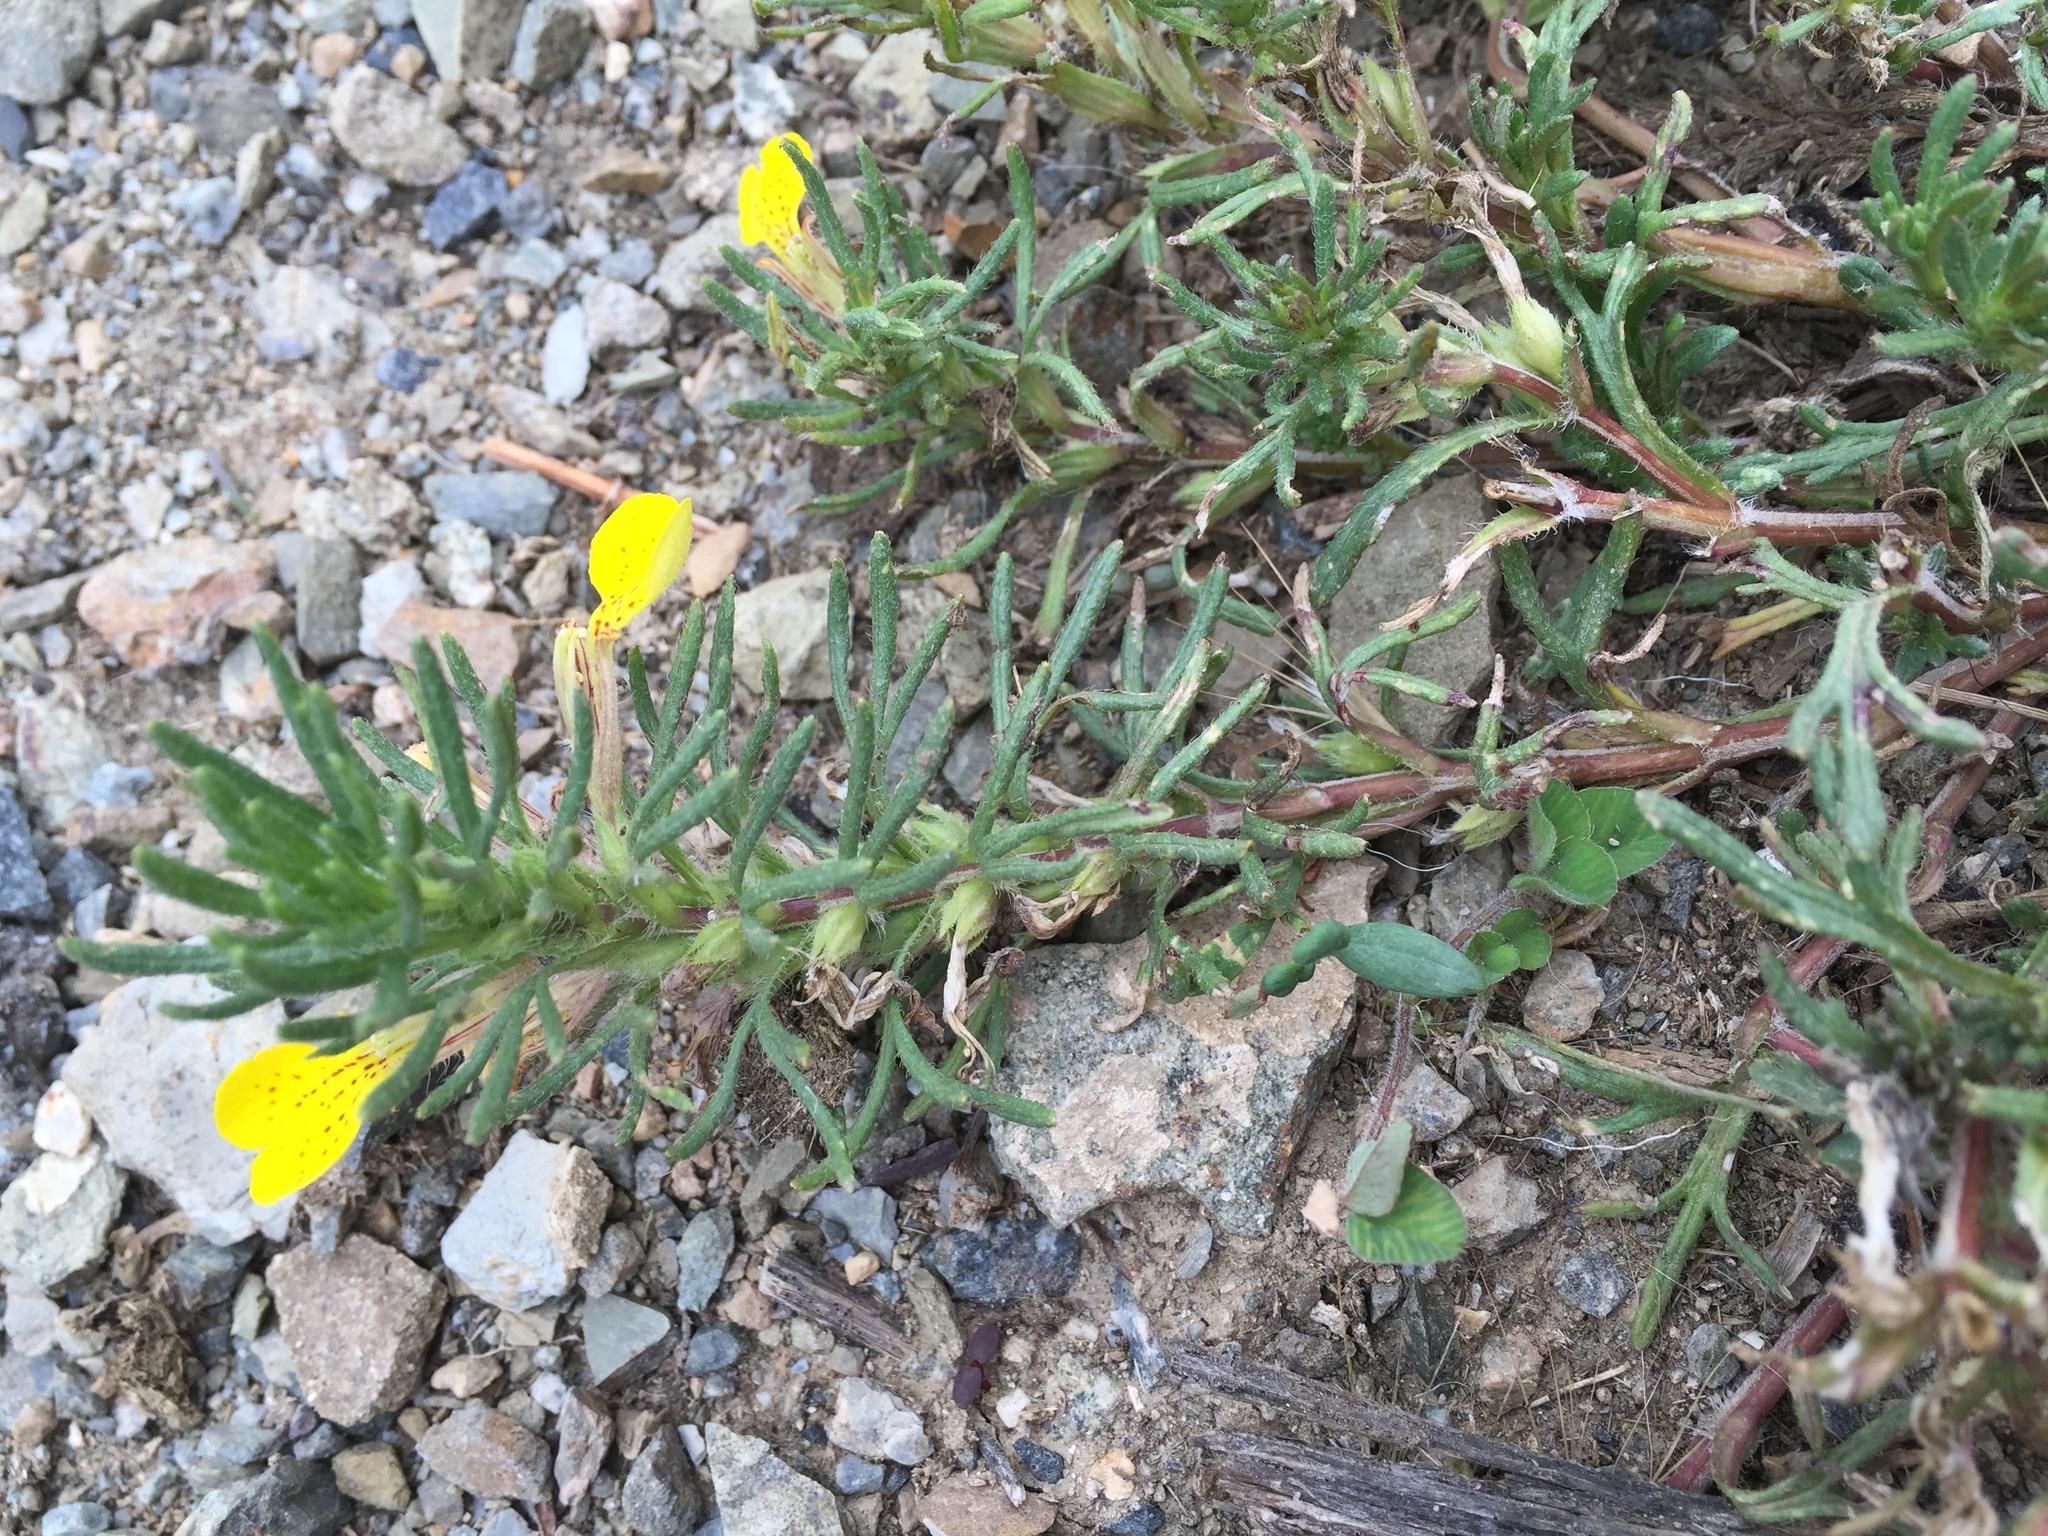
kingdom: Plantae
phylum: Tracheophyta
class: Magnoliopsida
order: Lamiales
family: Lamiaceae
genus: Ajuga
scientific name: Ajuga chamaepitys
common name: Ground-pine
